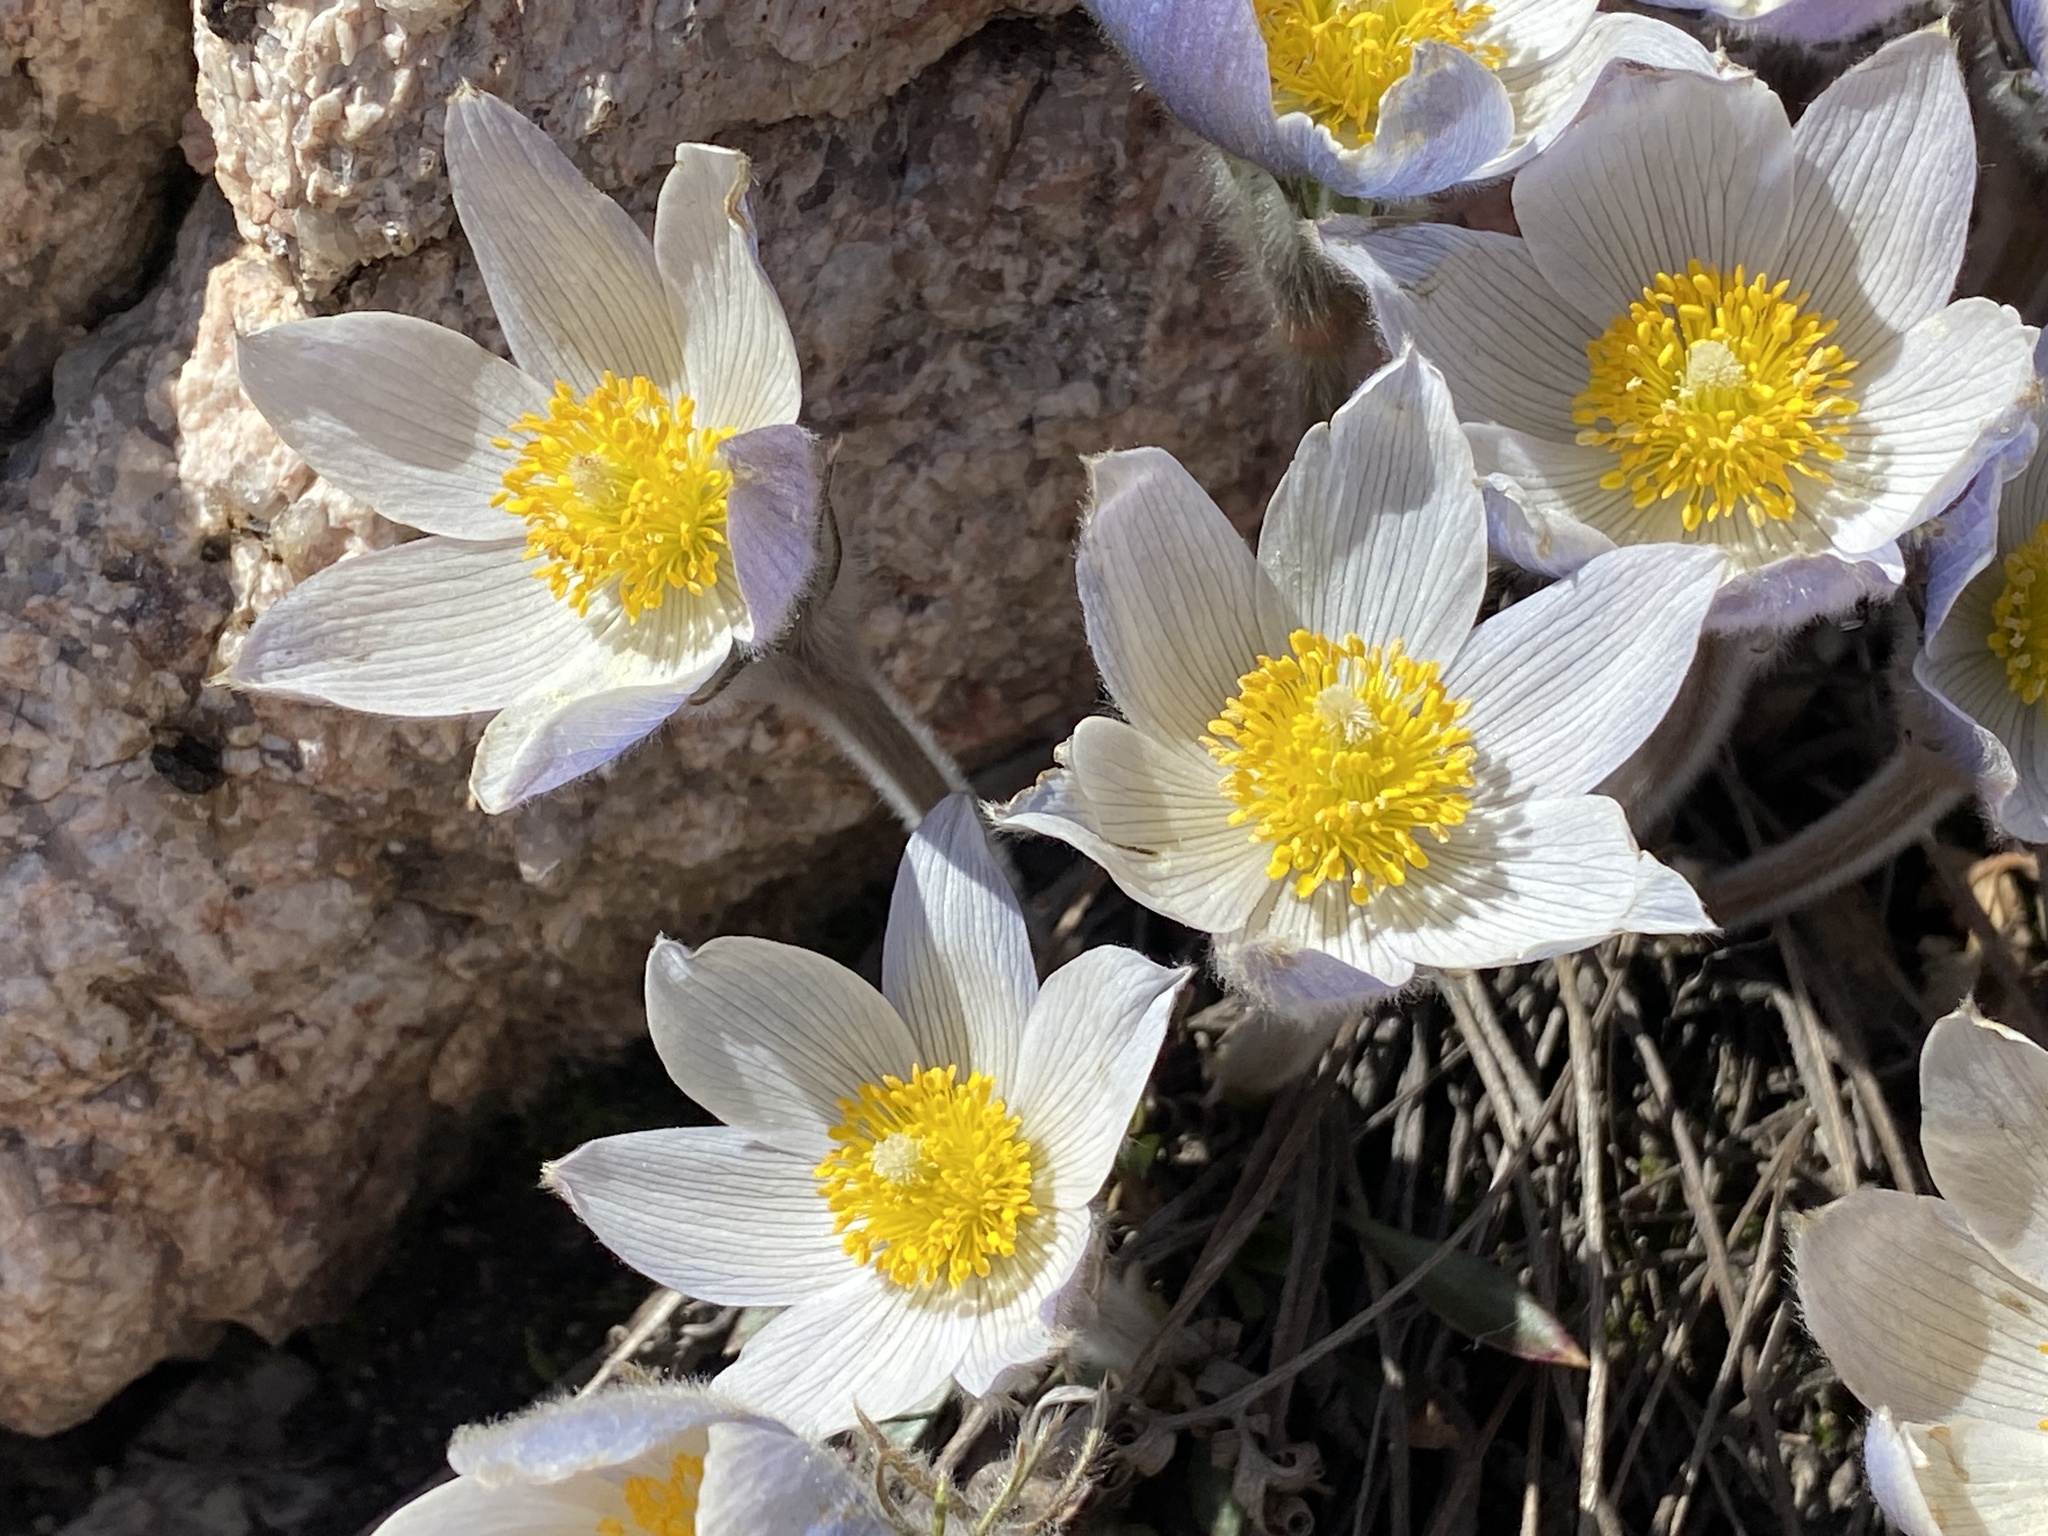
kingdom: Plantae
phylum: Tracheophyta
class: Magnoliopsida
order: Ranunculales
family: Ranunculaceae
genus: Pulsatilla
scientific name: Pulsatilla nuttalliana
